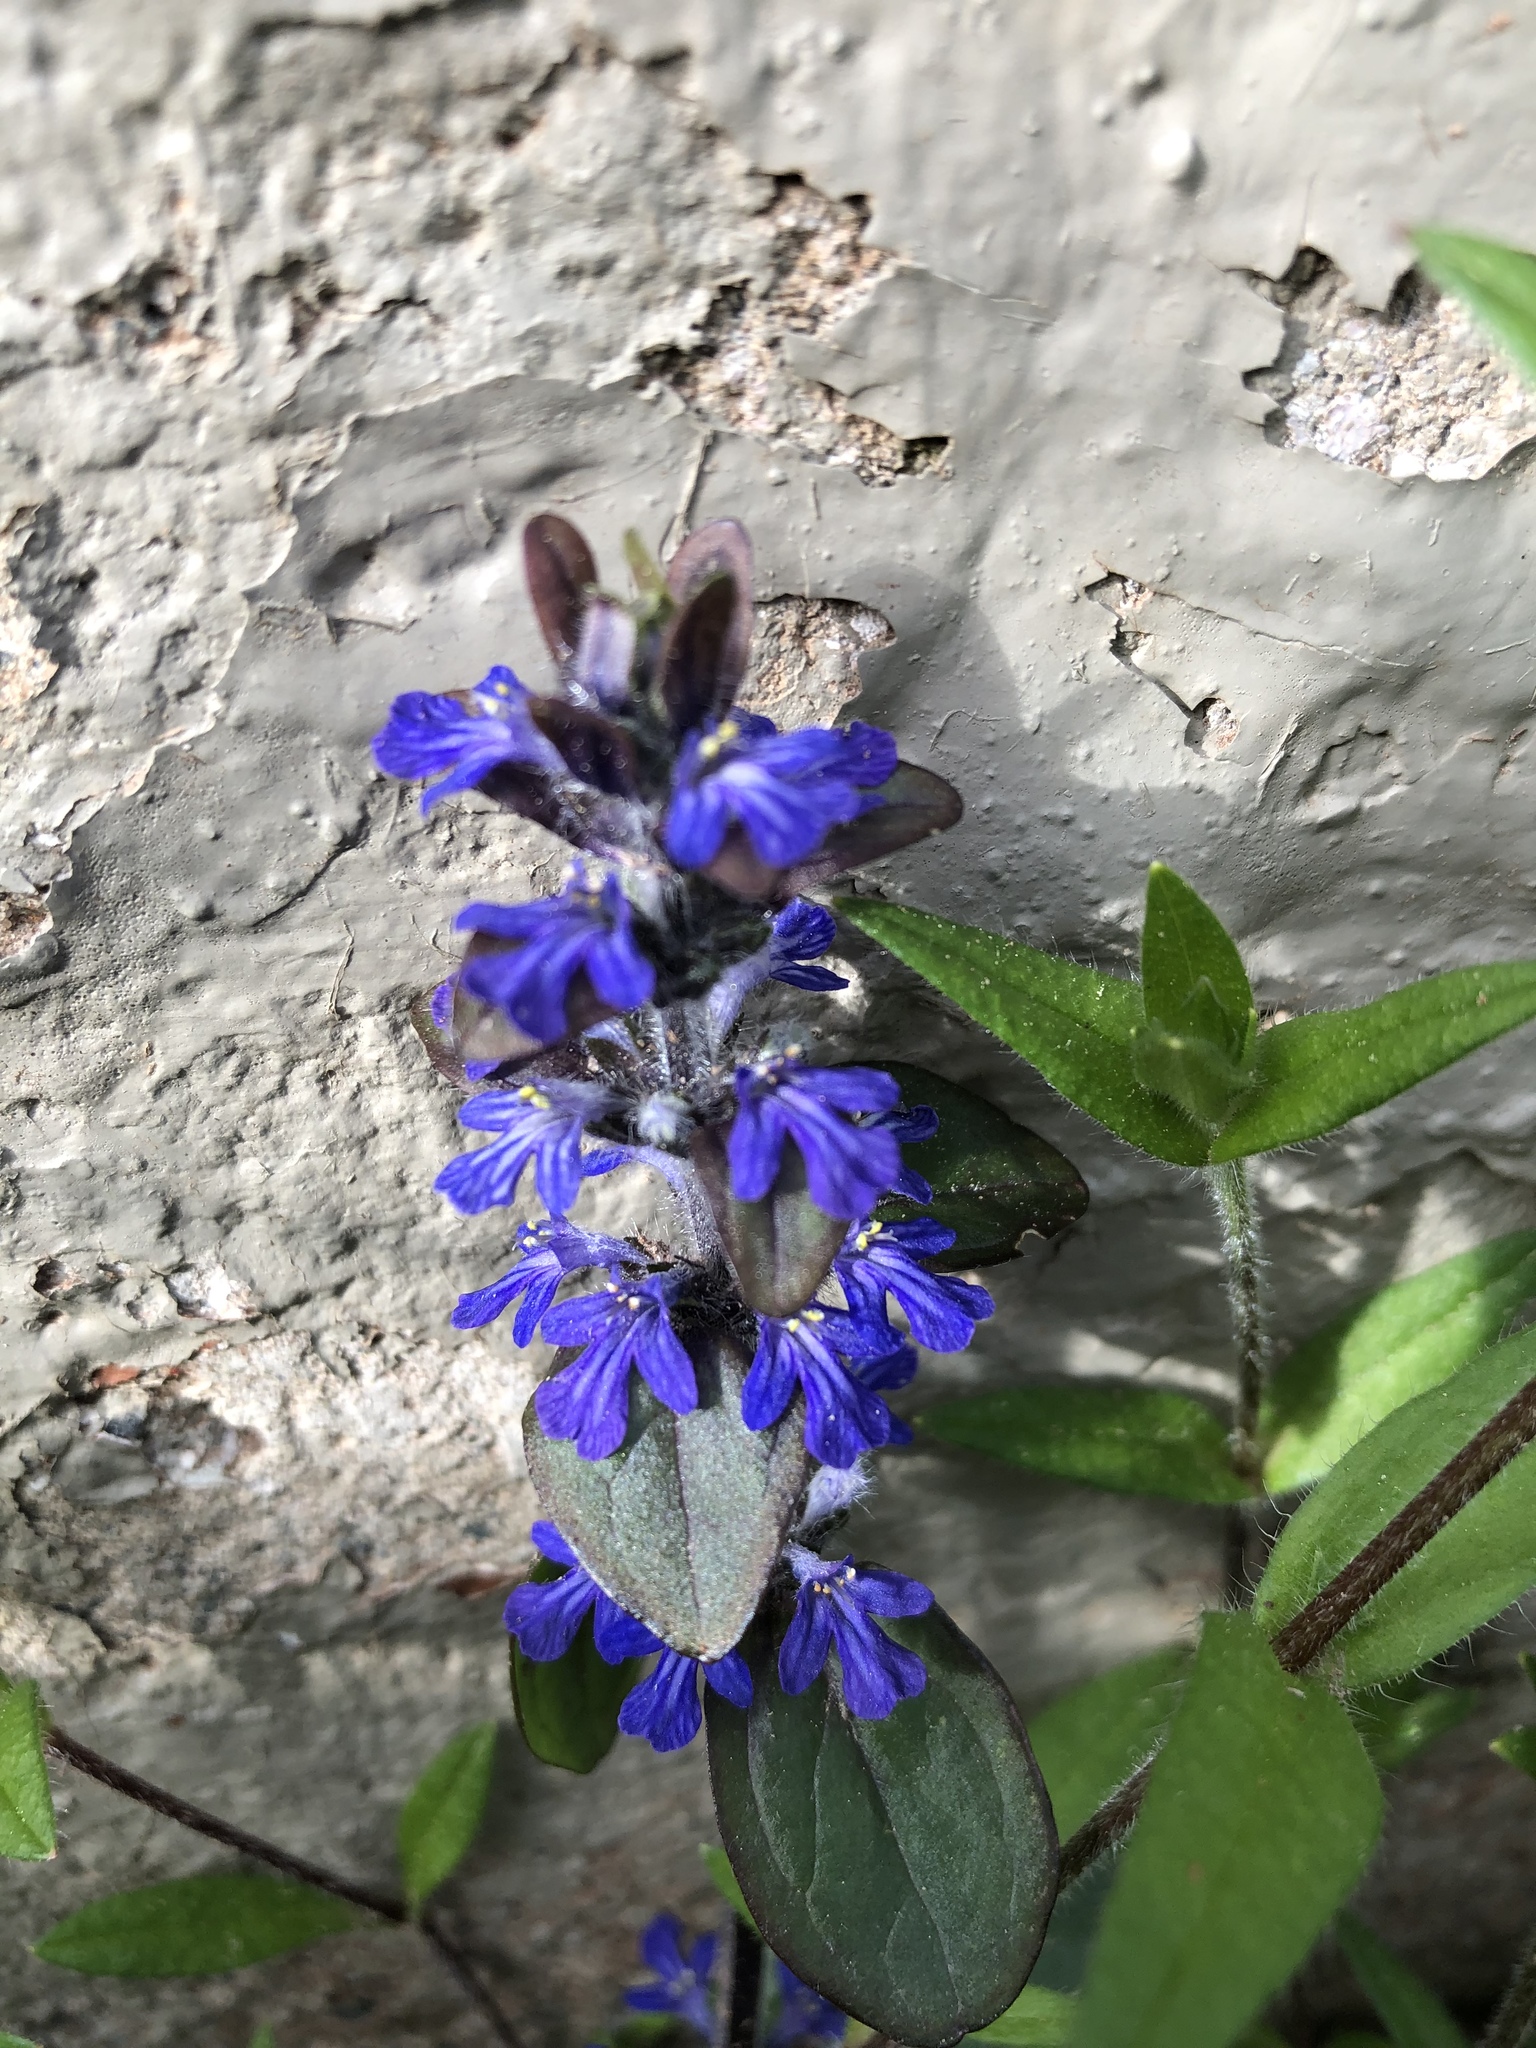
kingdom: Plantae
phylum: Tracheophyta
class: Magnoliopsida
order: Lamiales
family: Lamiaceae
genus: Ajuga
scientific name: Ajuga reptans
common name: Bugle
